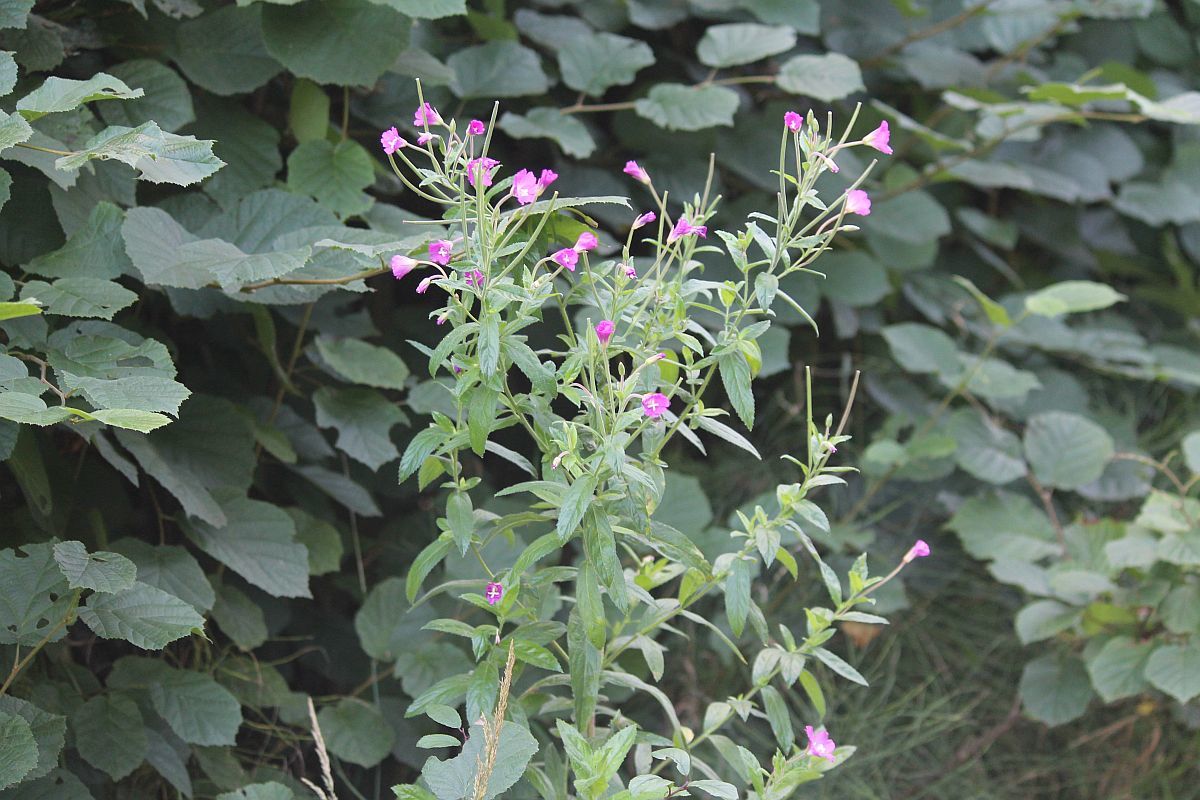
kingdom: Plantae
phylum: Tracheophyta
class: Magnoliopsida
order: Myrtales
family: Onagraceae
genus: Epilobium
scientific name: Epilobium hirsutum
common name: Great willowherb
